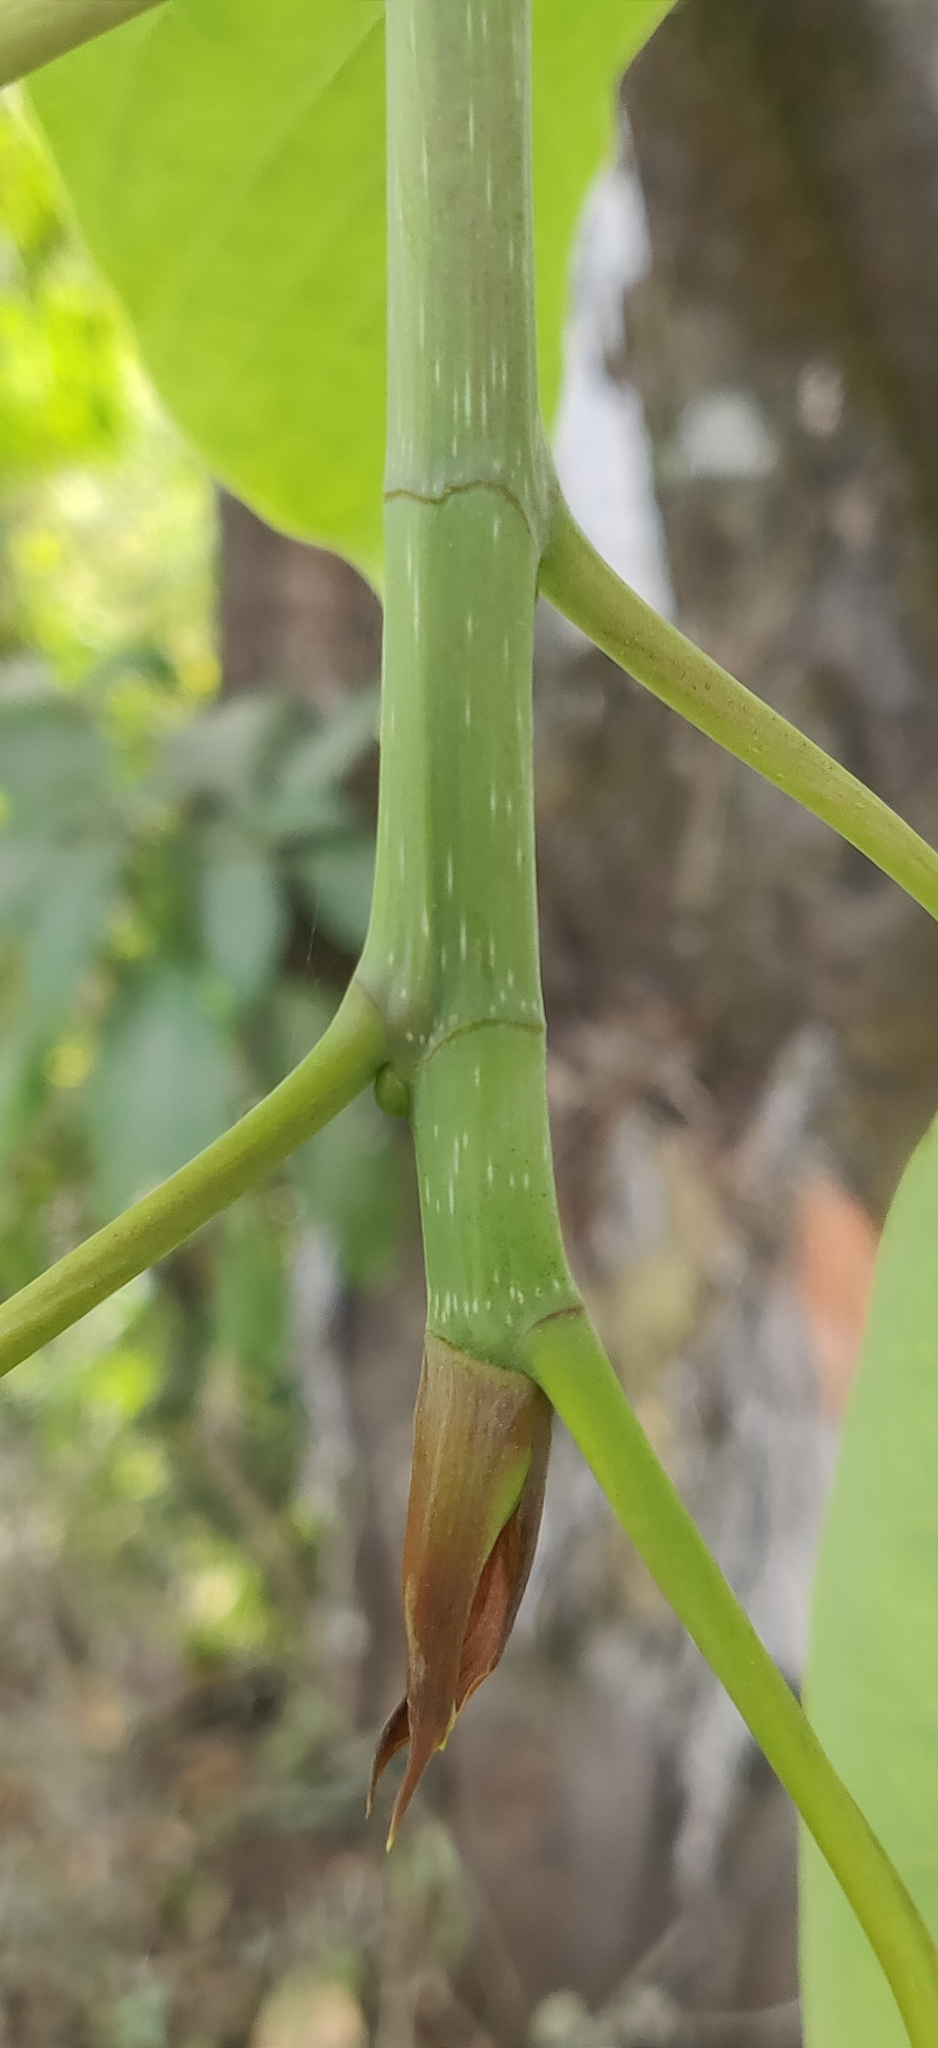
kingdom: Plantae
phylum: Tracheophyta
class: Magnoliopsida
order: Rosales
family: Moraceae
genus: Ficus
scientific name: Ficus tsjakela
